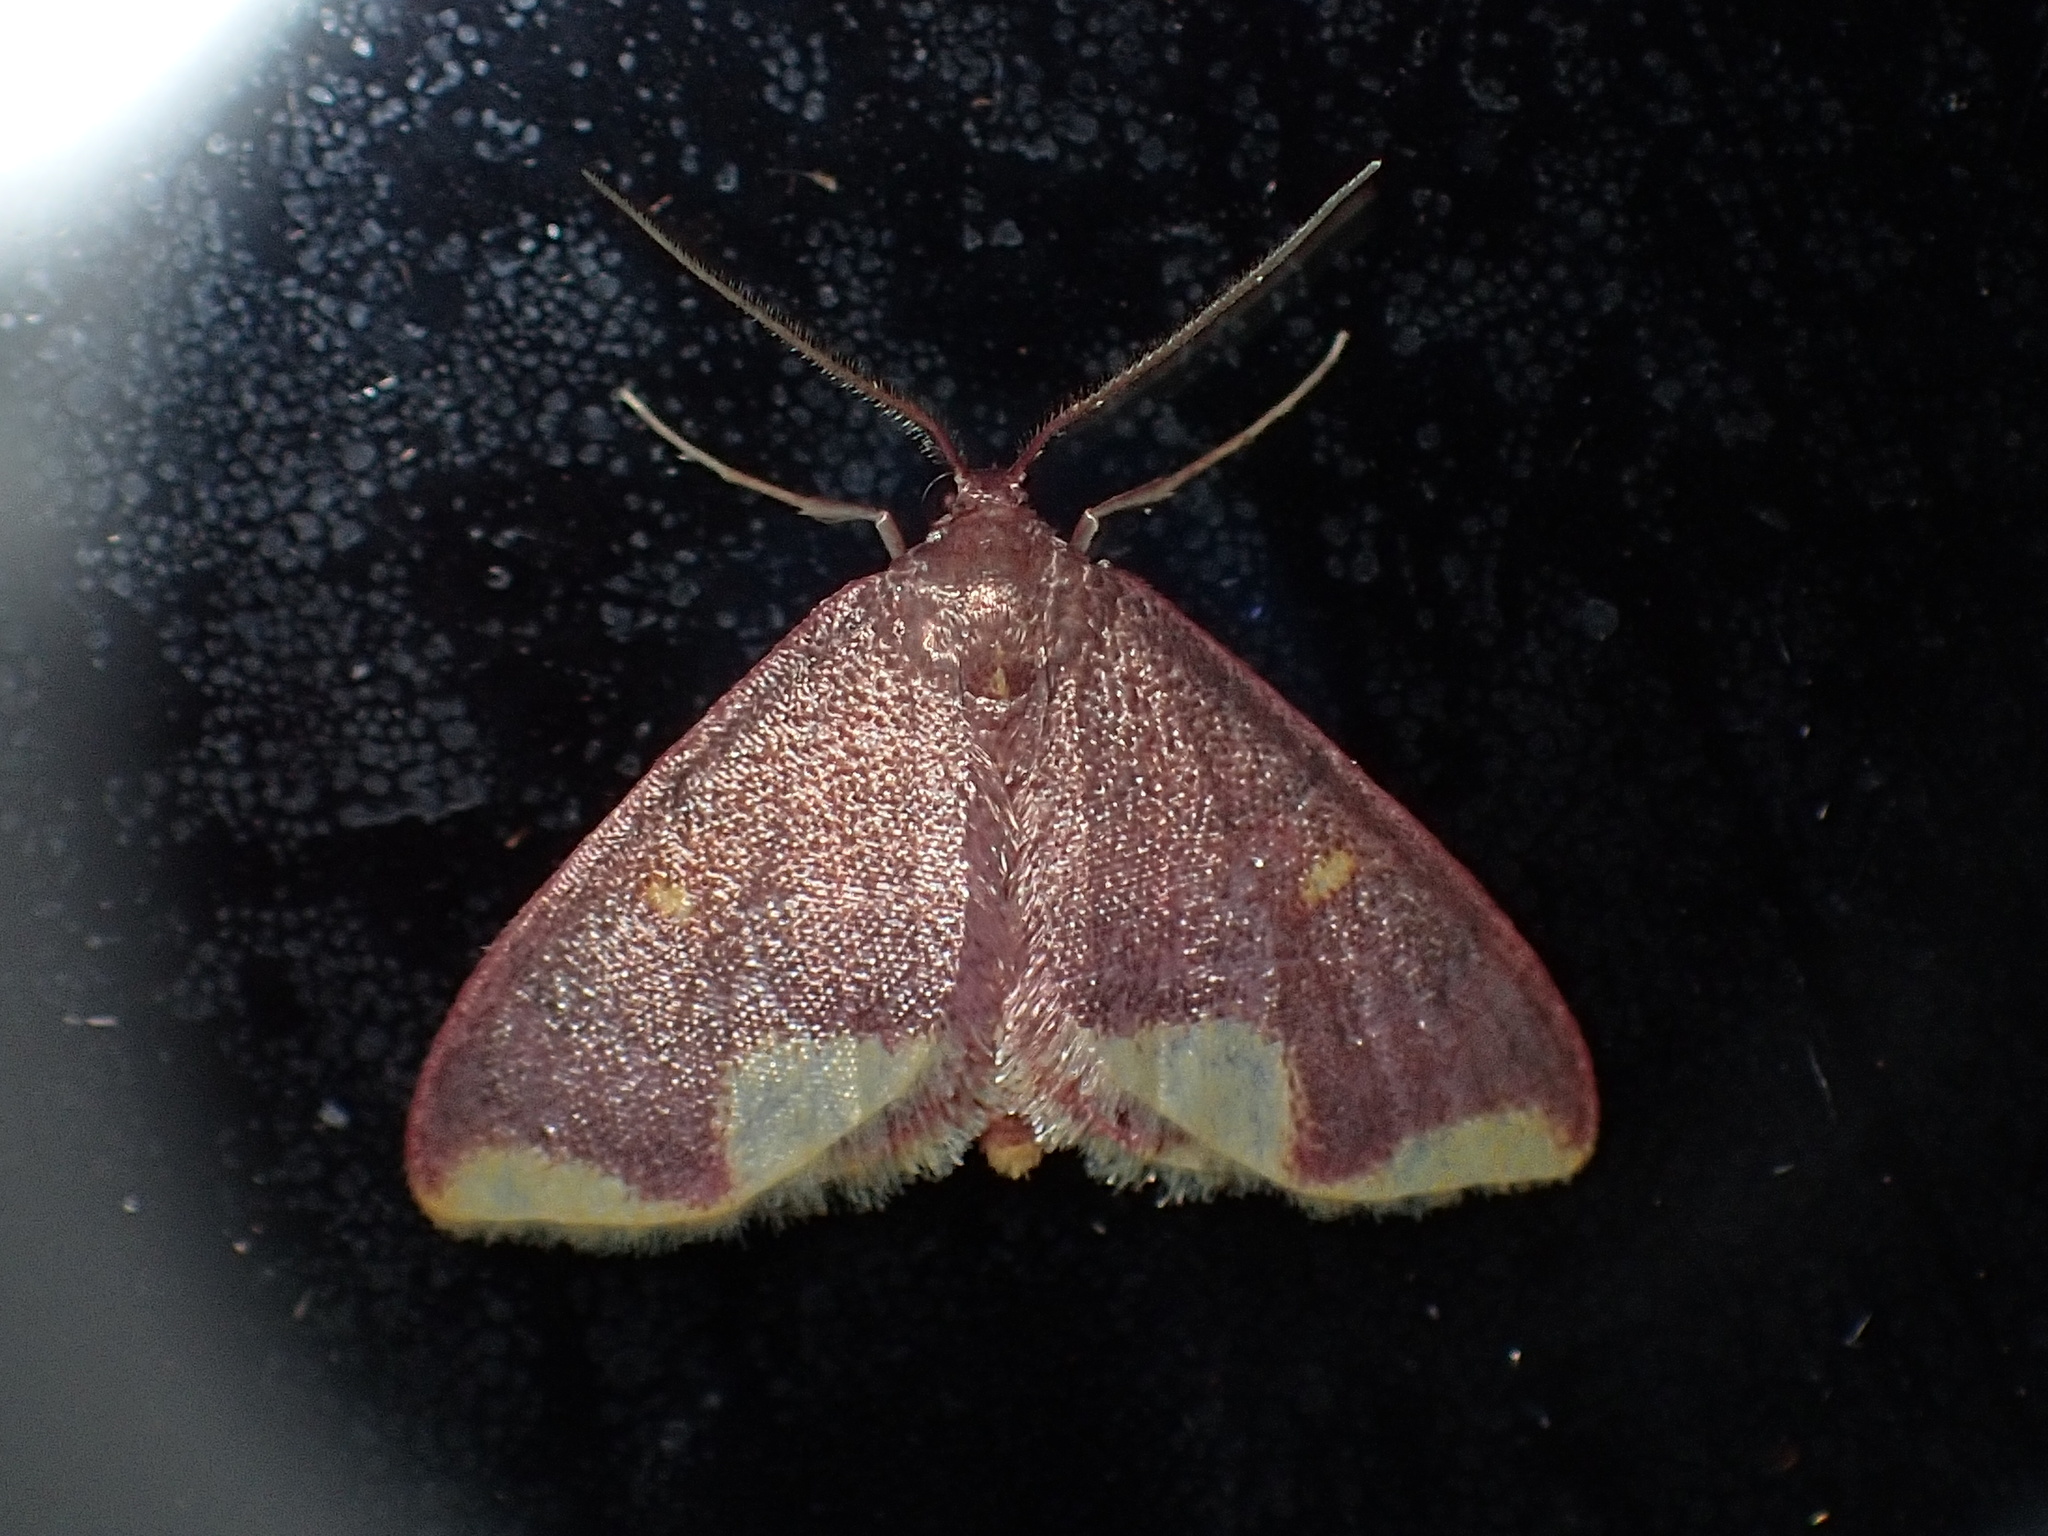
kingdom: Animalia
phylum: Arthropoda
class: Insecta
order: Lepidoptera
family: Geometridae
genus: Lophosis
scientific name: Lophosis labeculata
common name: Stained lophosis moth
